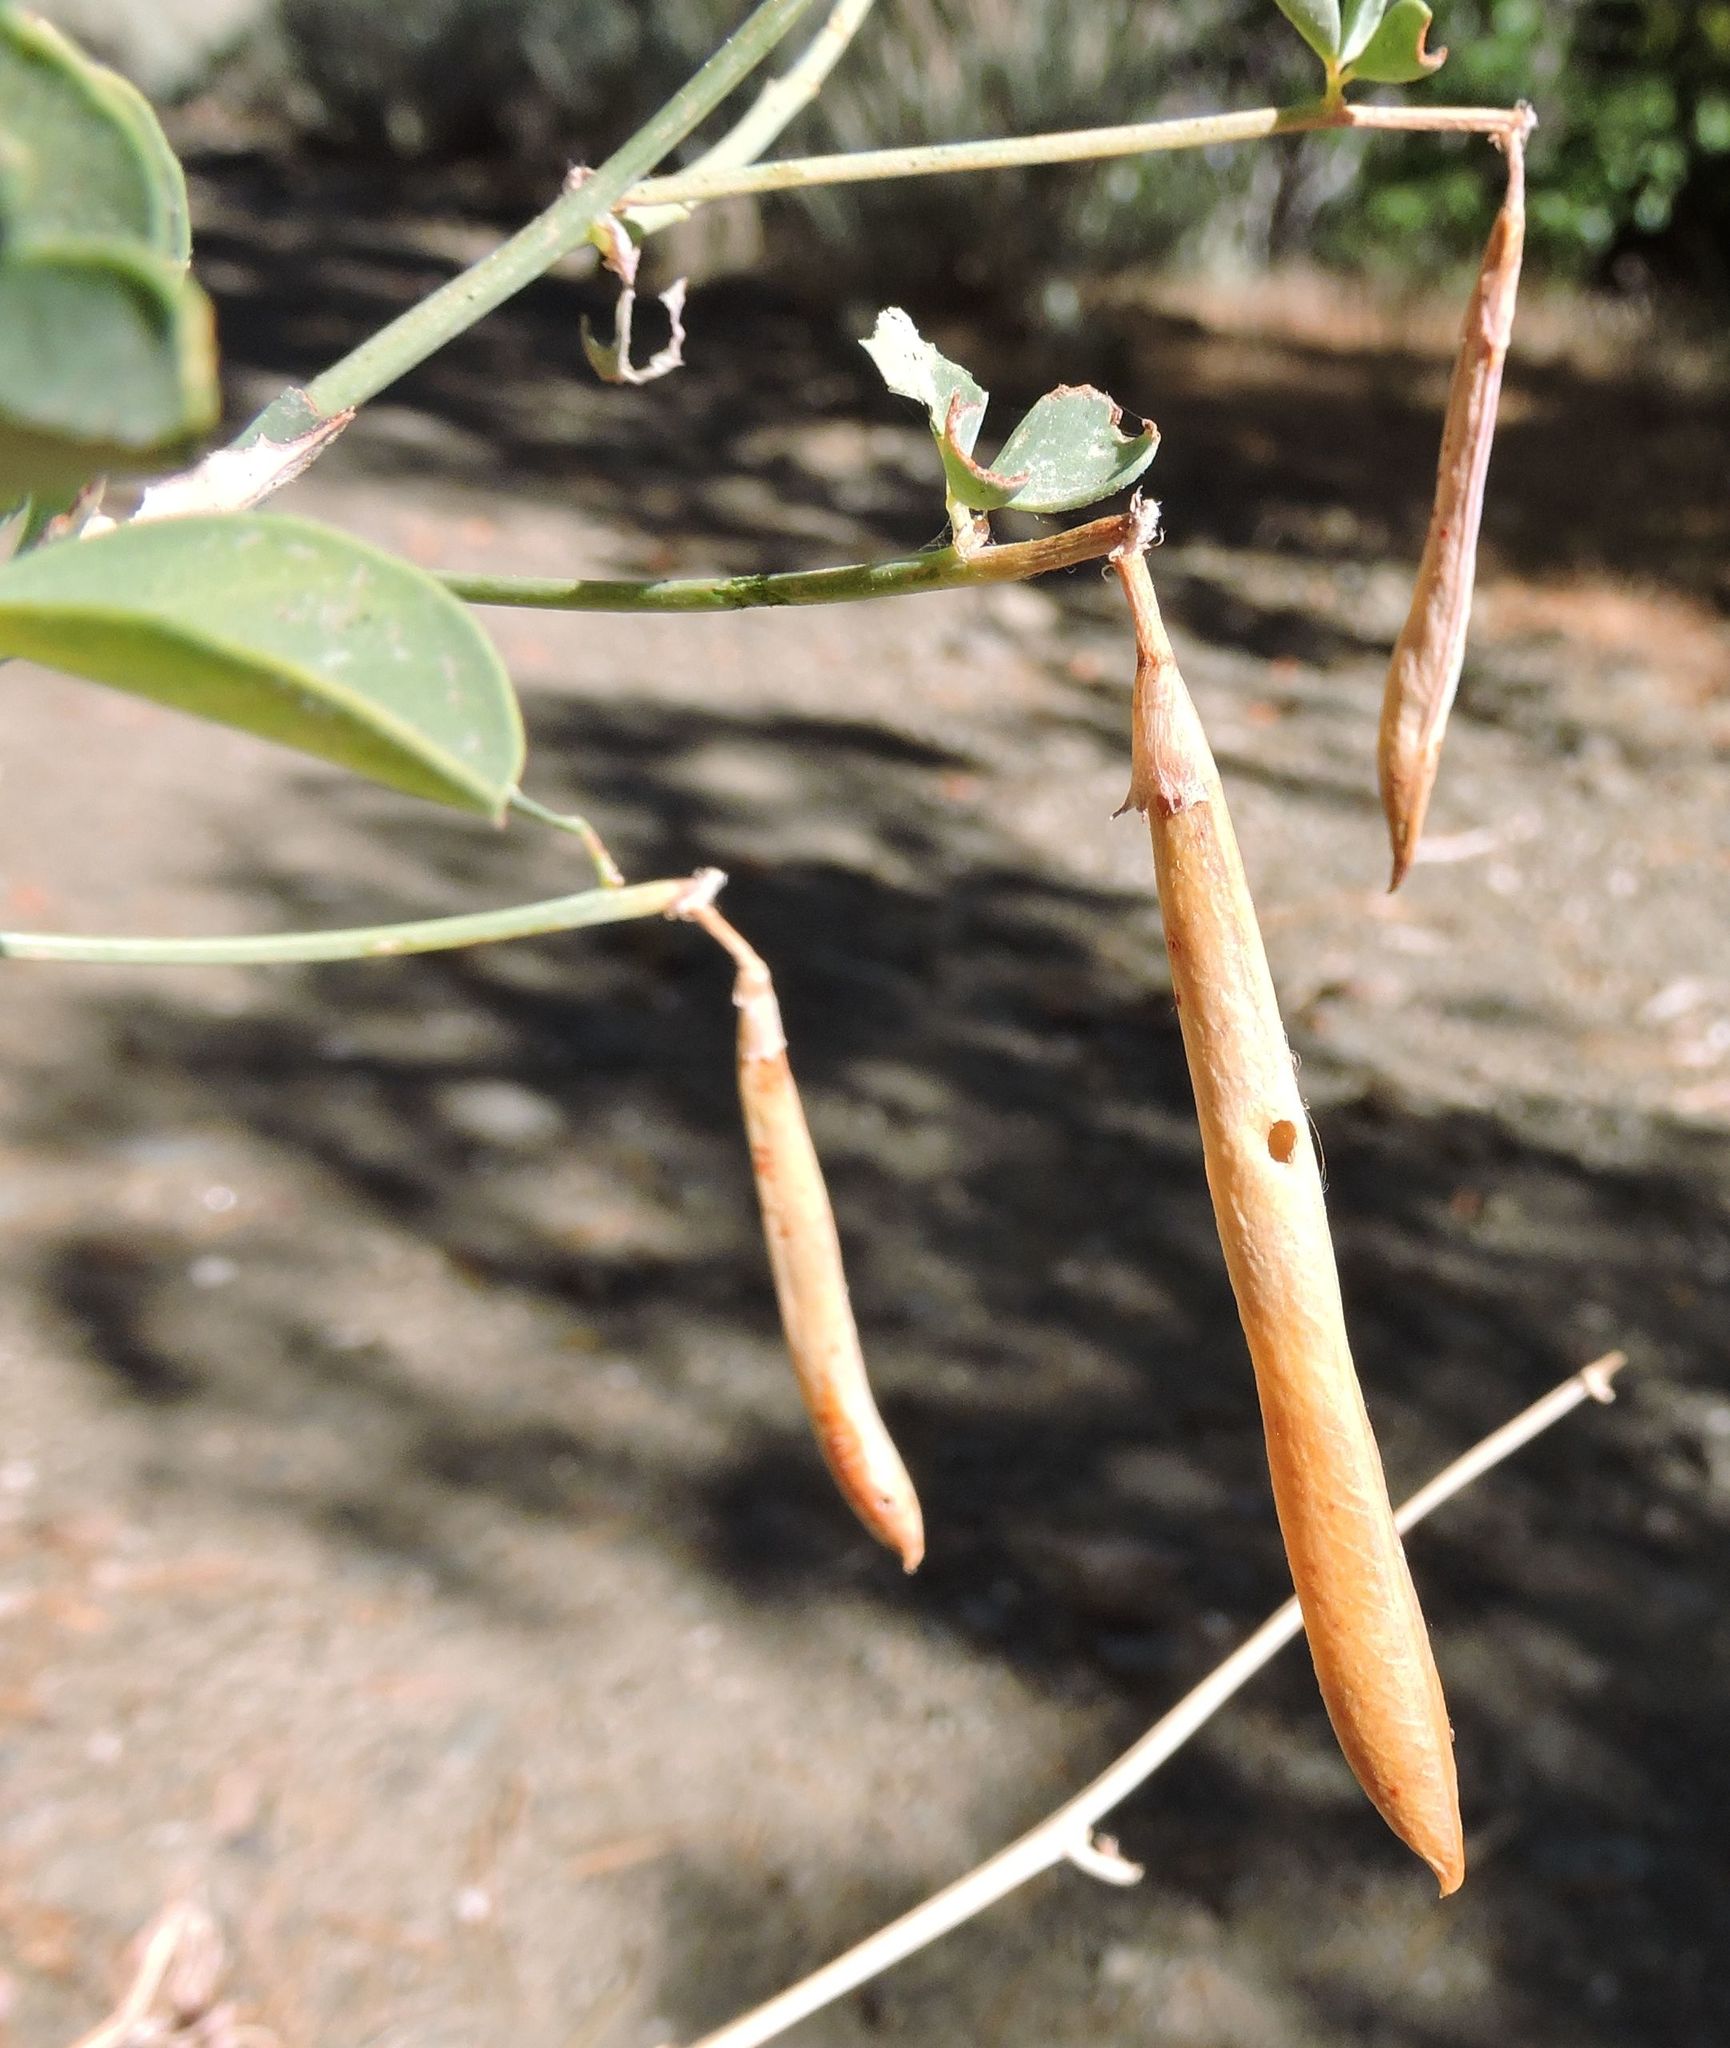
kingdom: Plantae
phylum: Tracheophyta
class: Magnoliopsida
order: Fabales
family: Fabaceae
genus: Hosackia
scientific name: Hosackia crassifolia
